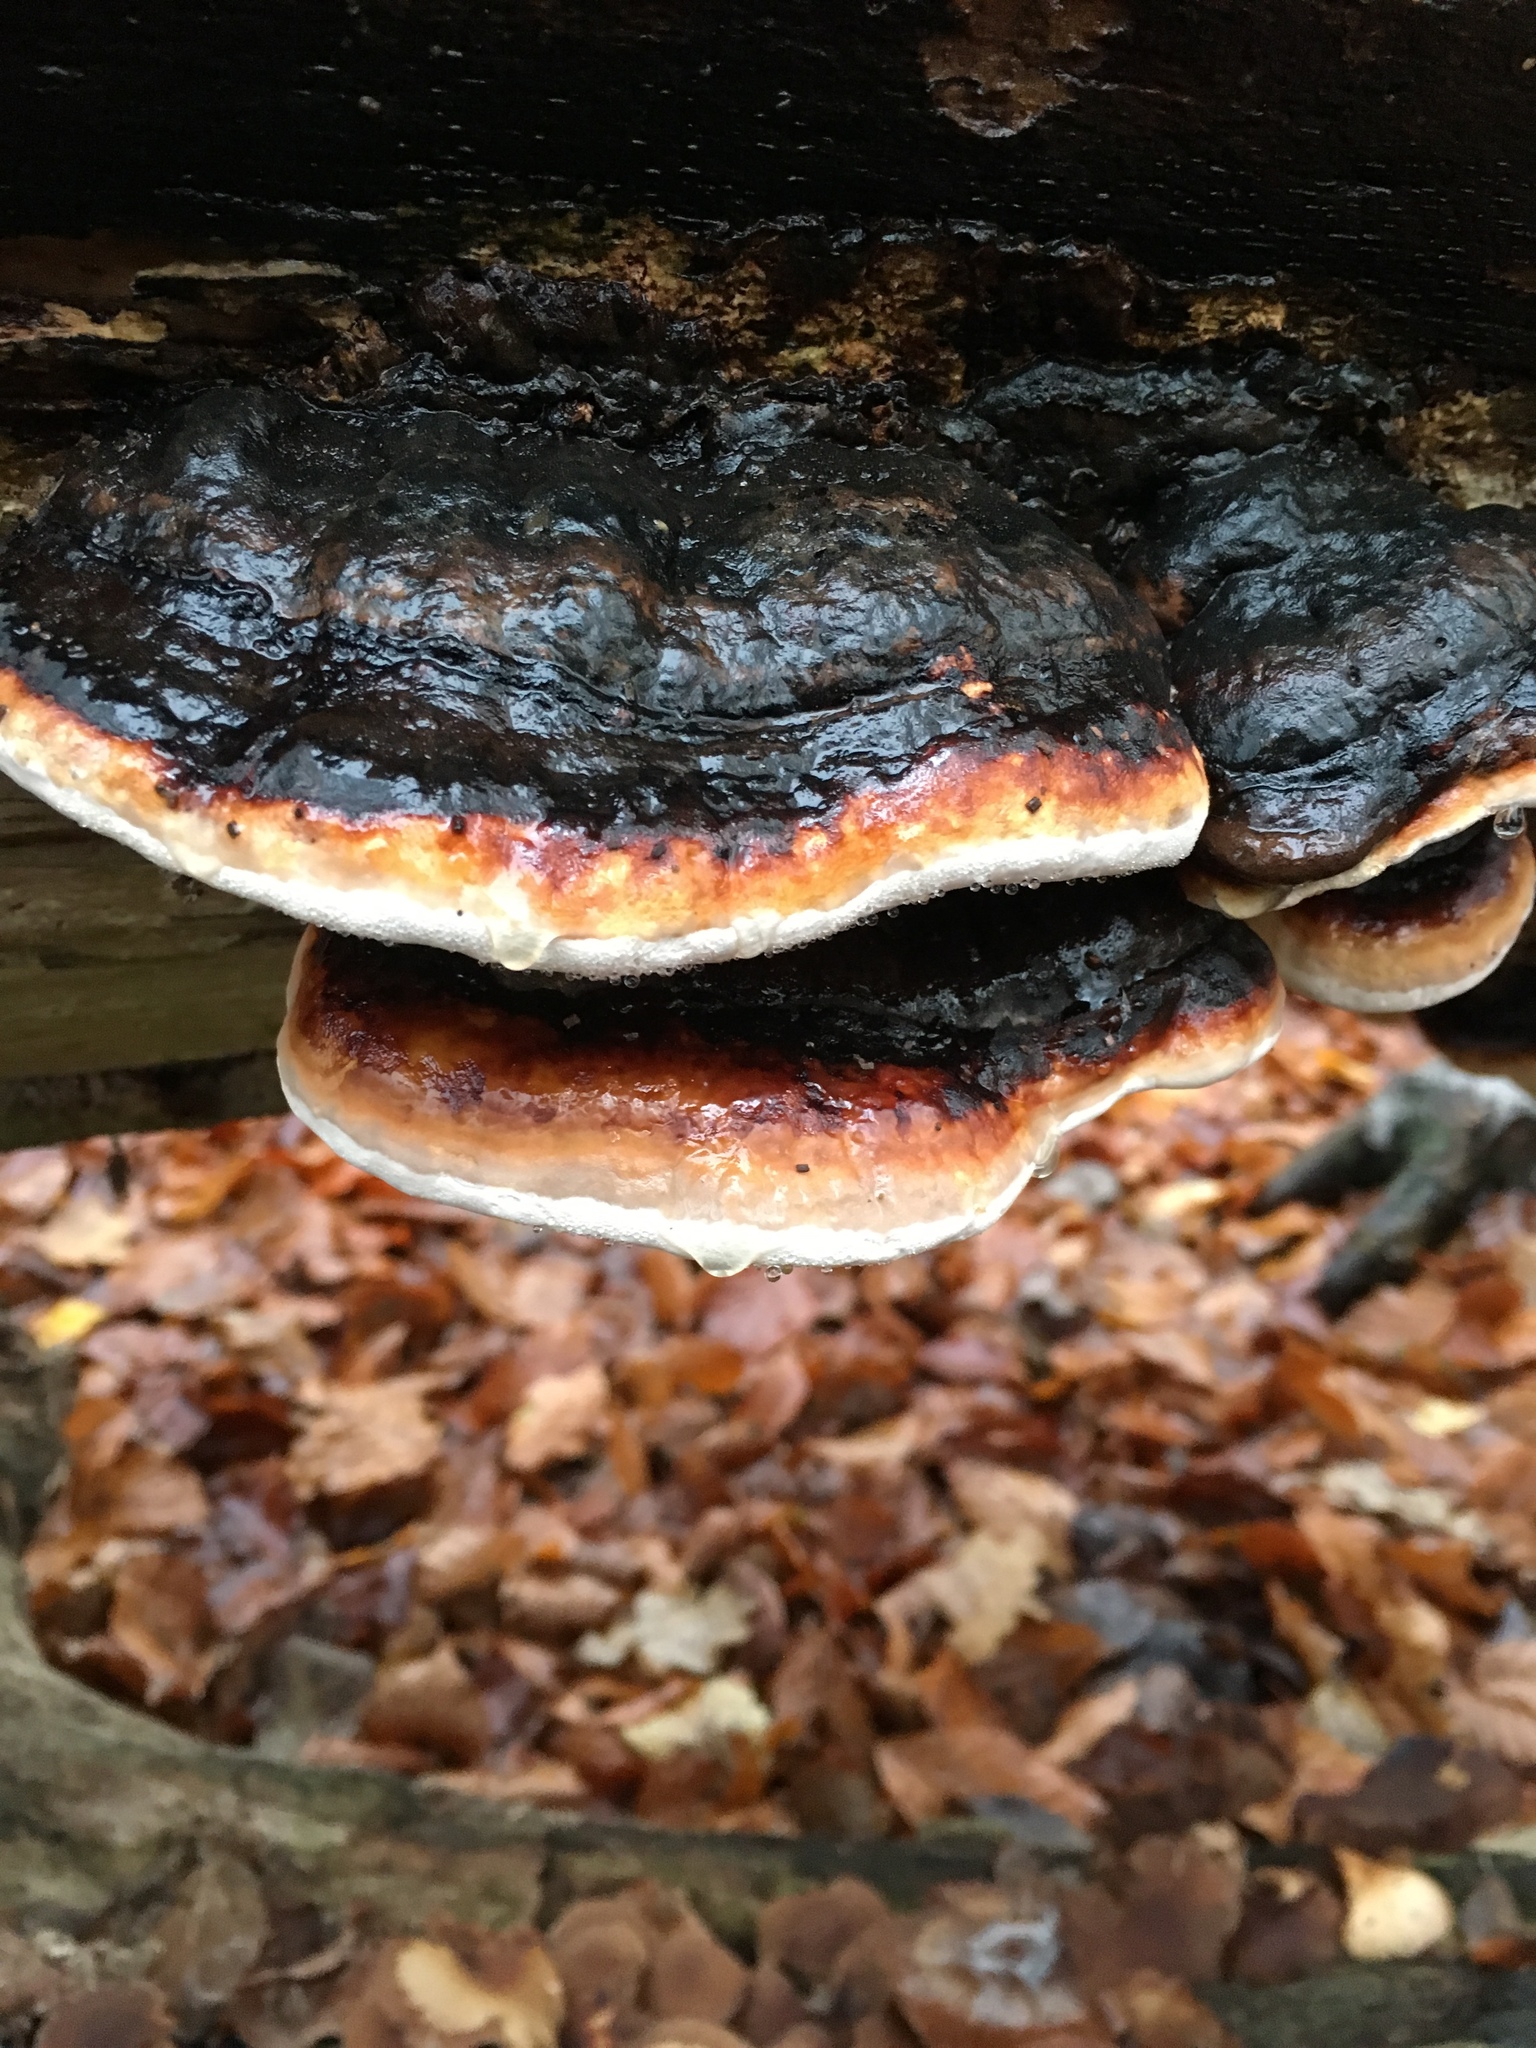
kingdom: Fungi
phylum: Basidiomycota
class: Agaricomycetes
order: Polyporales
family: Fomitopsidaceae
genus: Fomitopsis
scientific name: Fomitopsis pinicola
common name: Red-belted bracket
